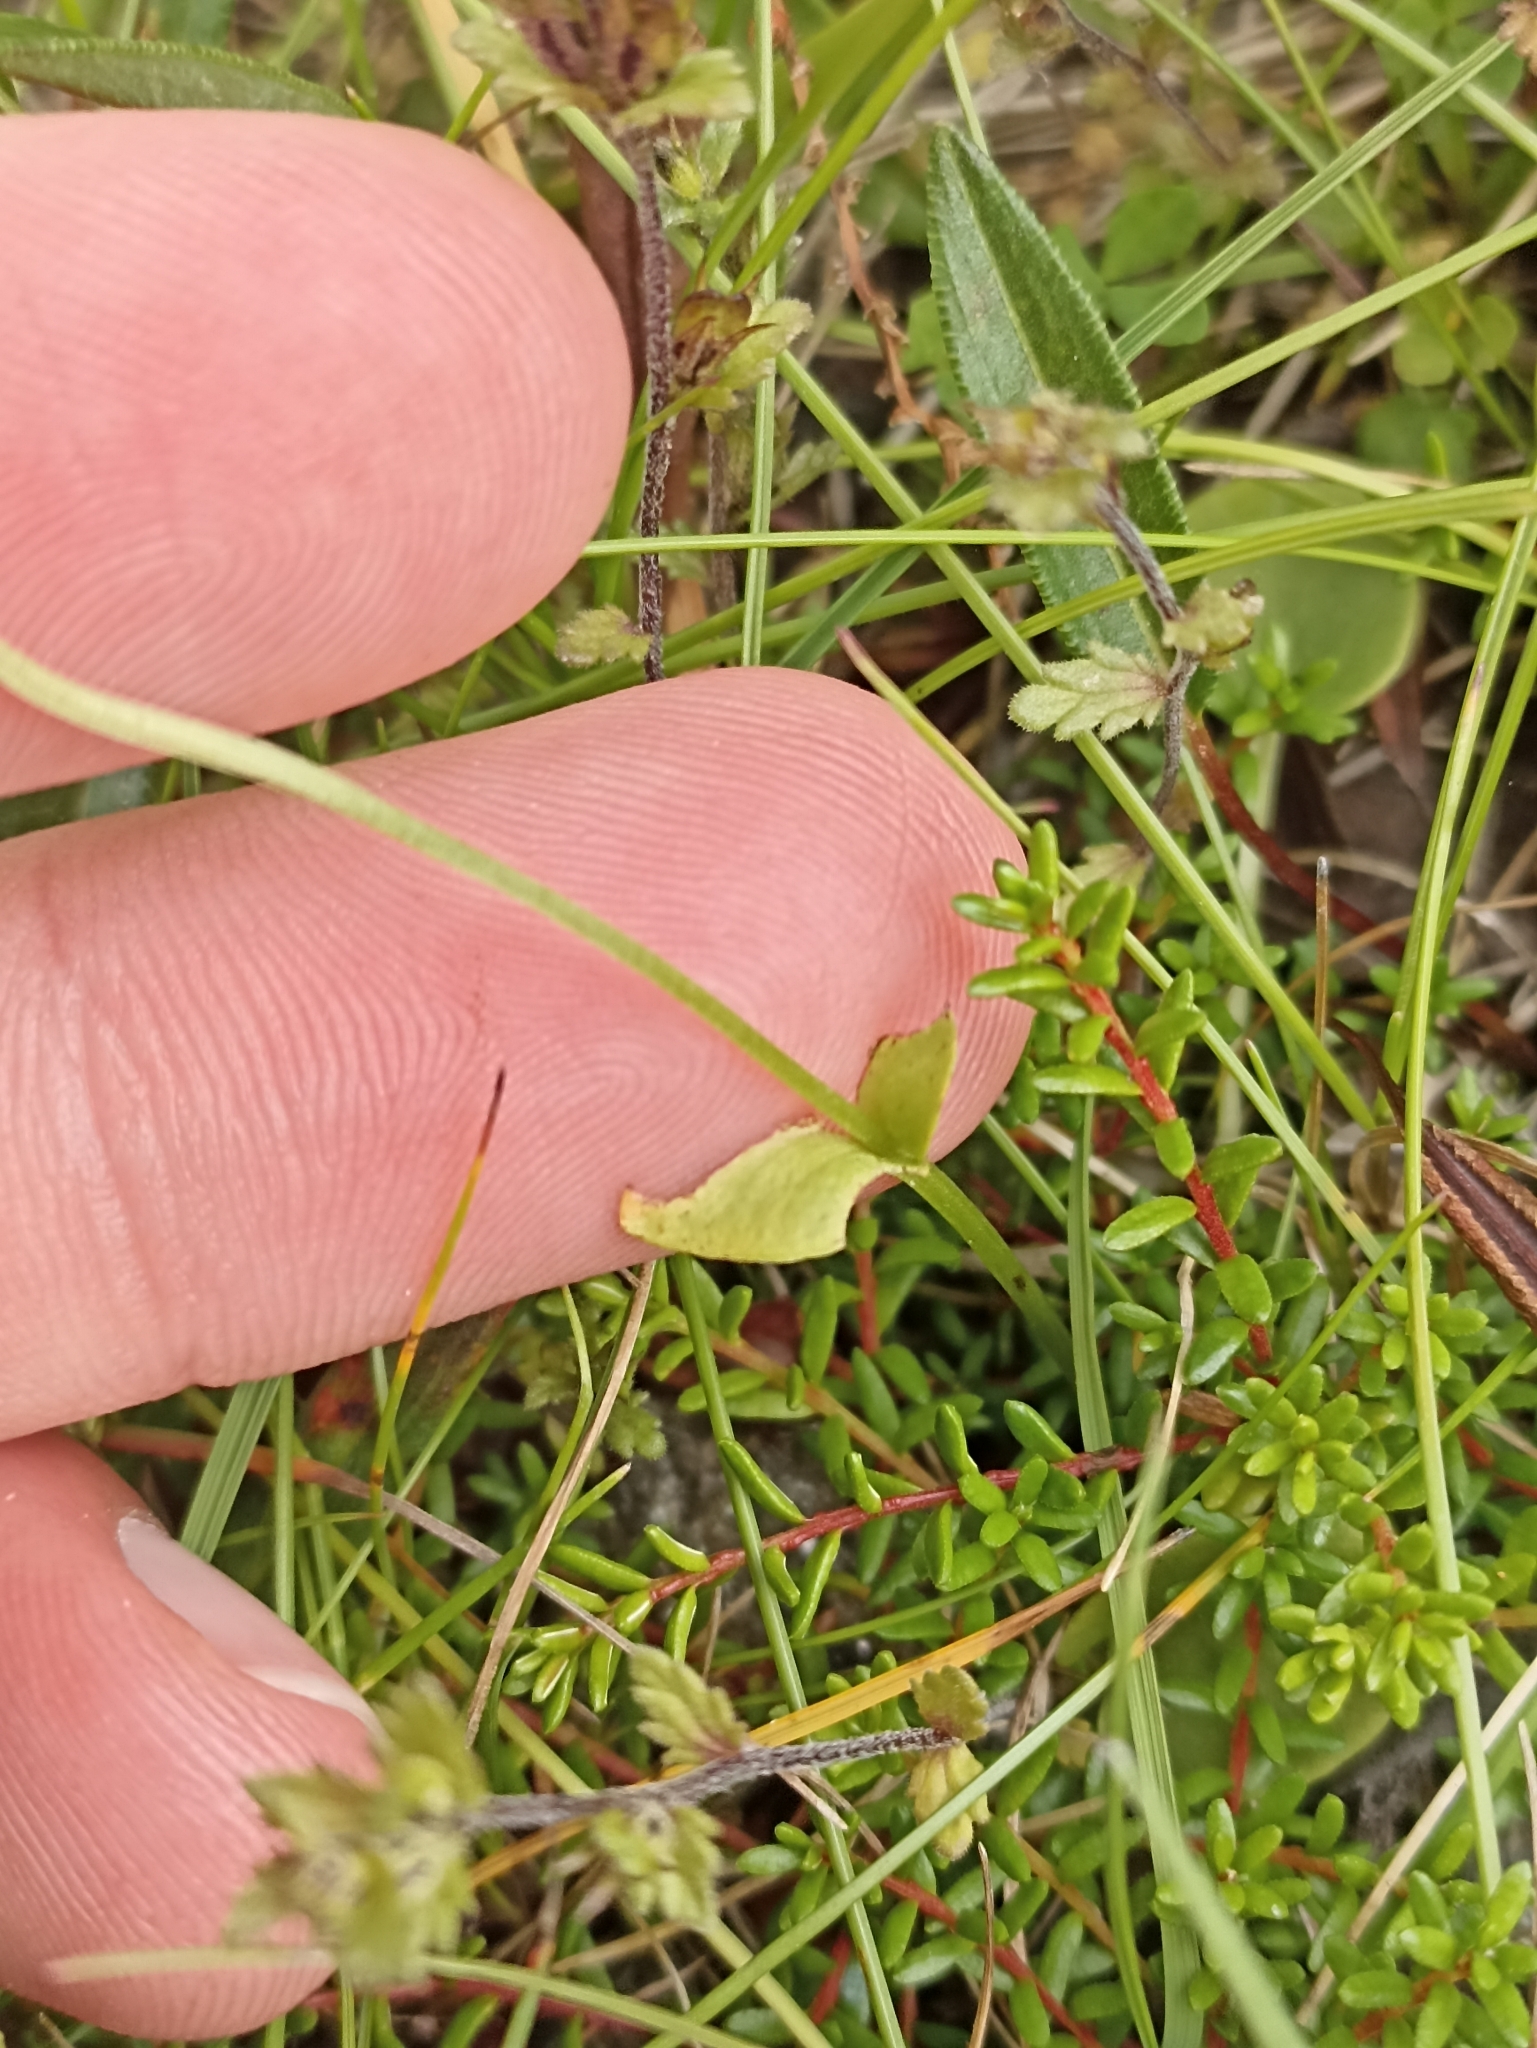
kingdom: Plantae
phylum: Tracheophyta
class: Magnoliopsida
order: Celastrales
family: Parnassiaceae
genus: Parnassia
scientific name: Parnassia palustris
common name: Grass-of-parnassus
